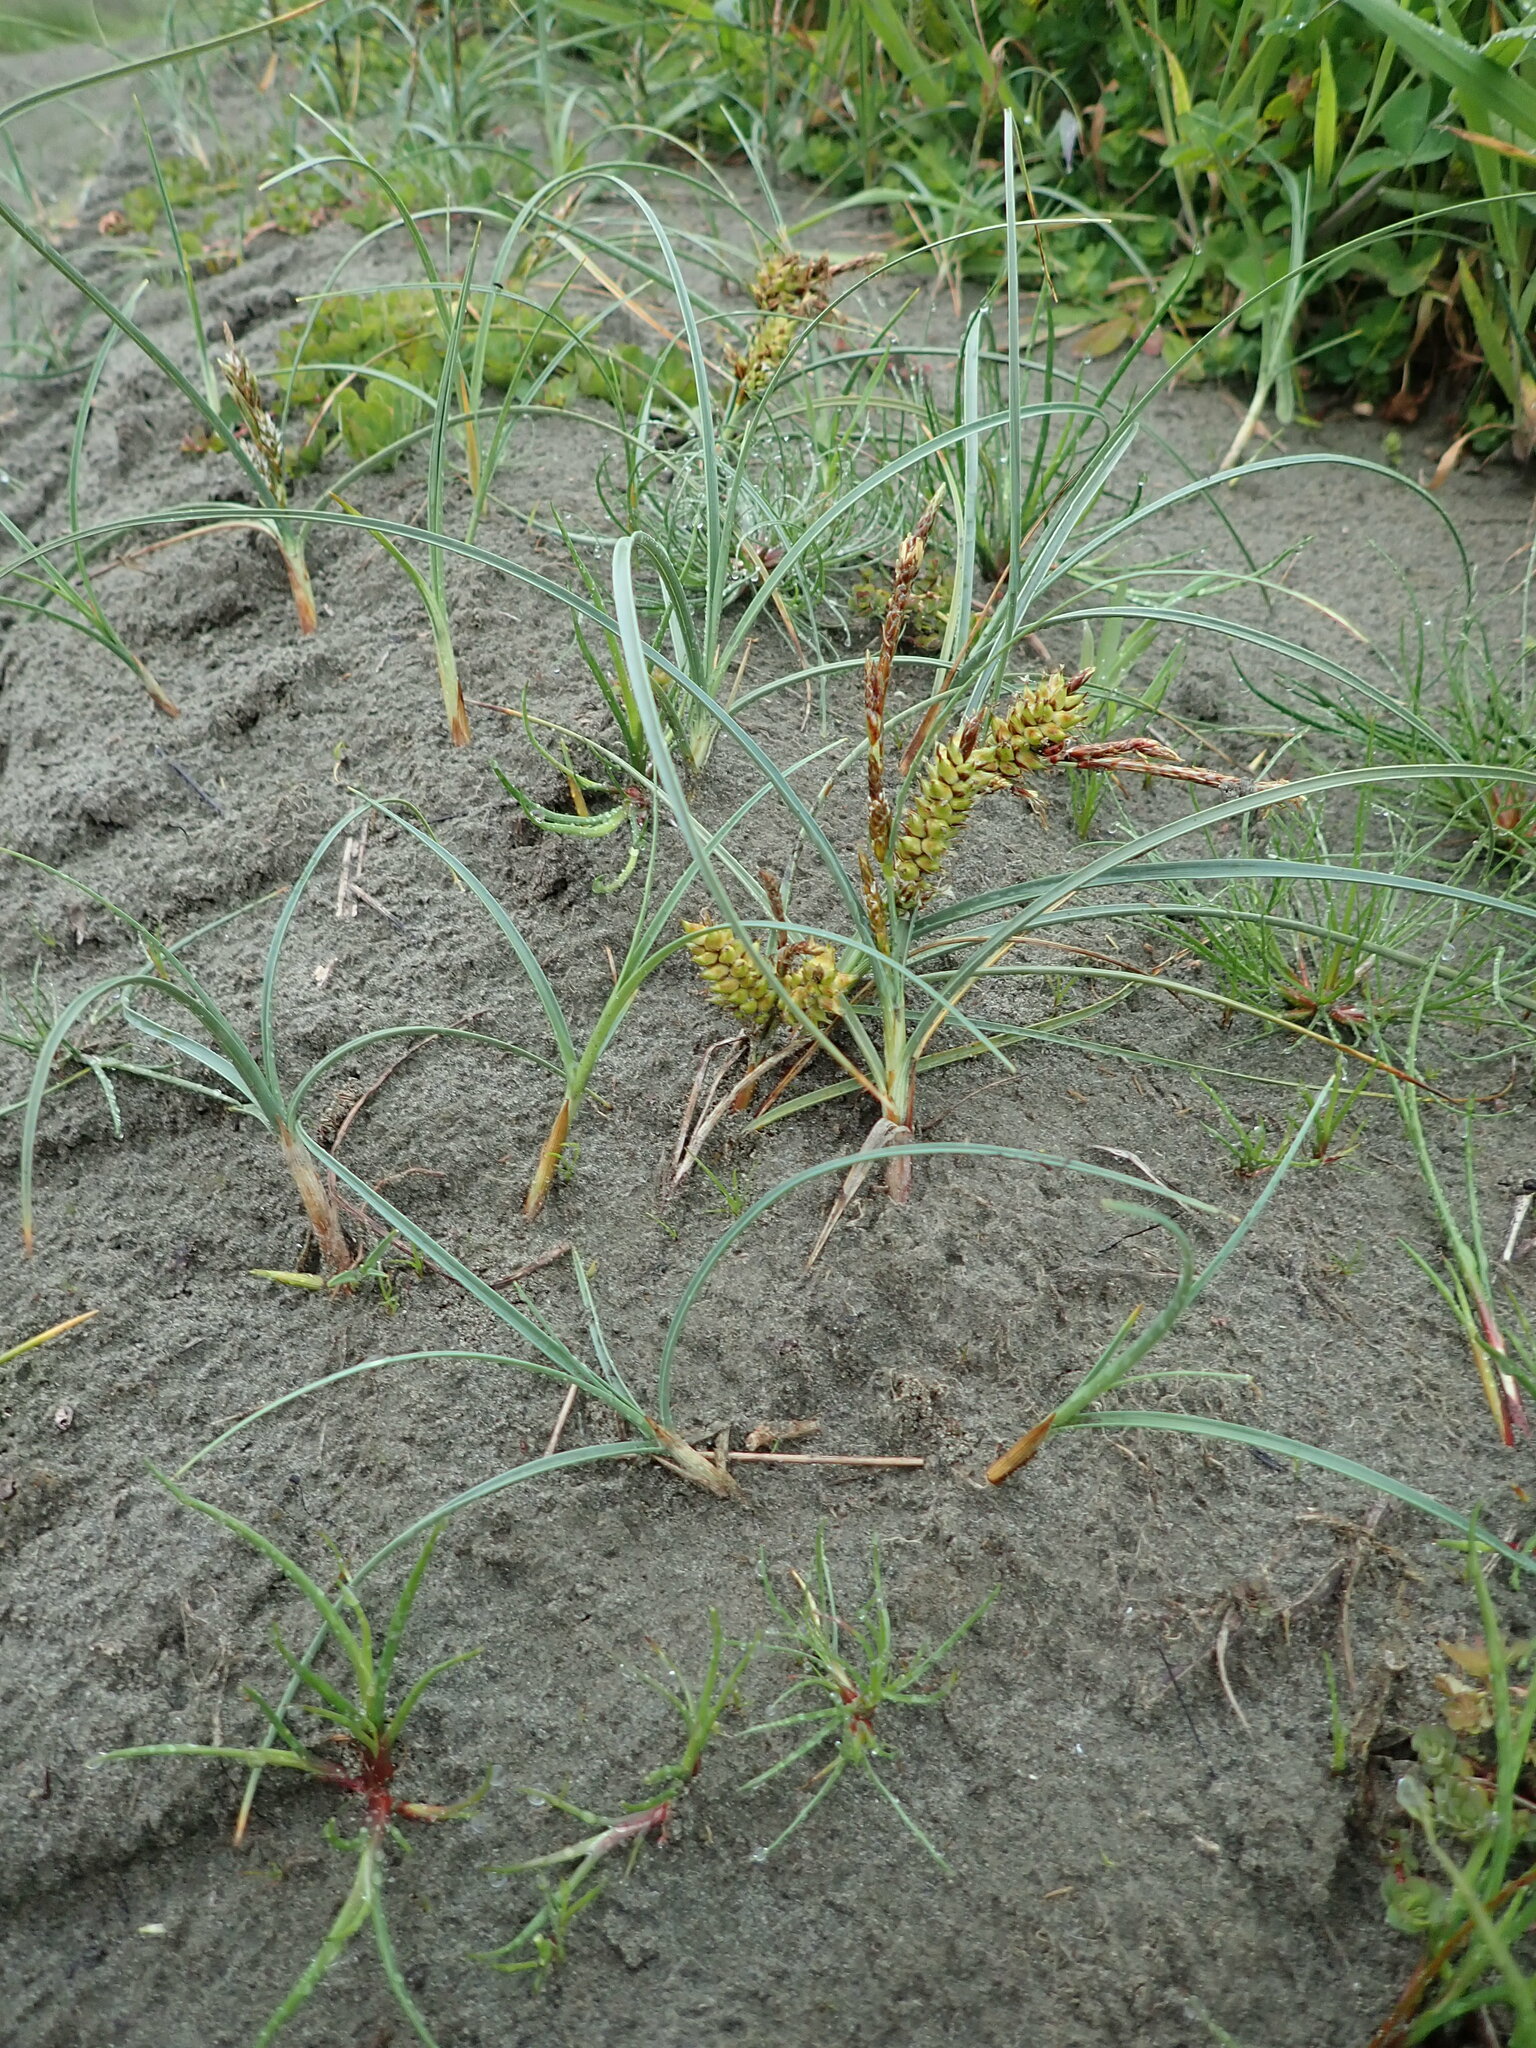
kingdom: Plantae
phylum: Tracheophyta
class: Liliopsida
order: Poales
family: Cyperaceae
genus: Carex
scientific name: Carex pumila
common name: Dwarf sedge
